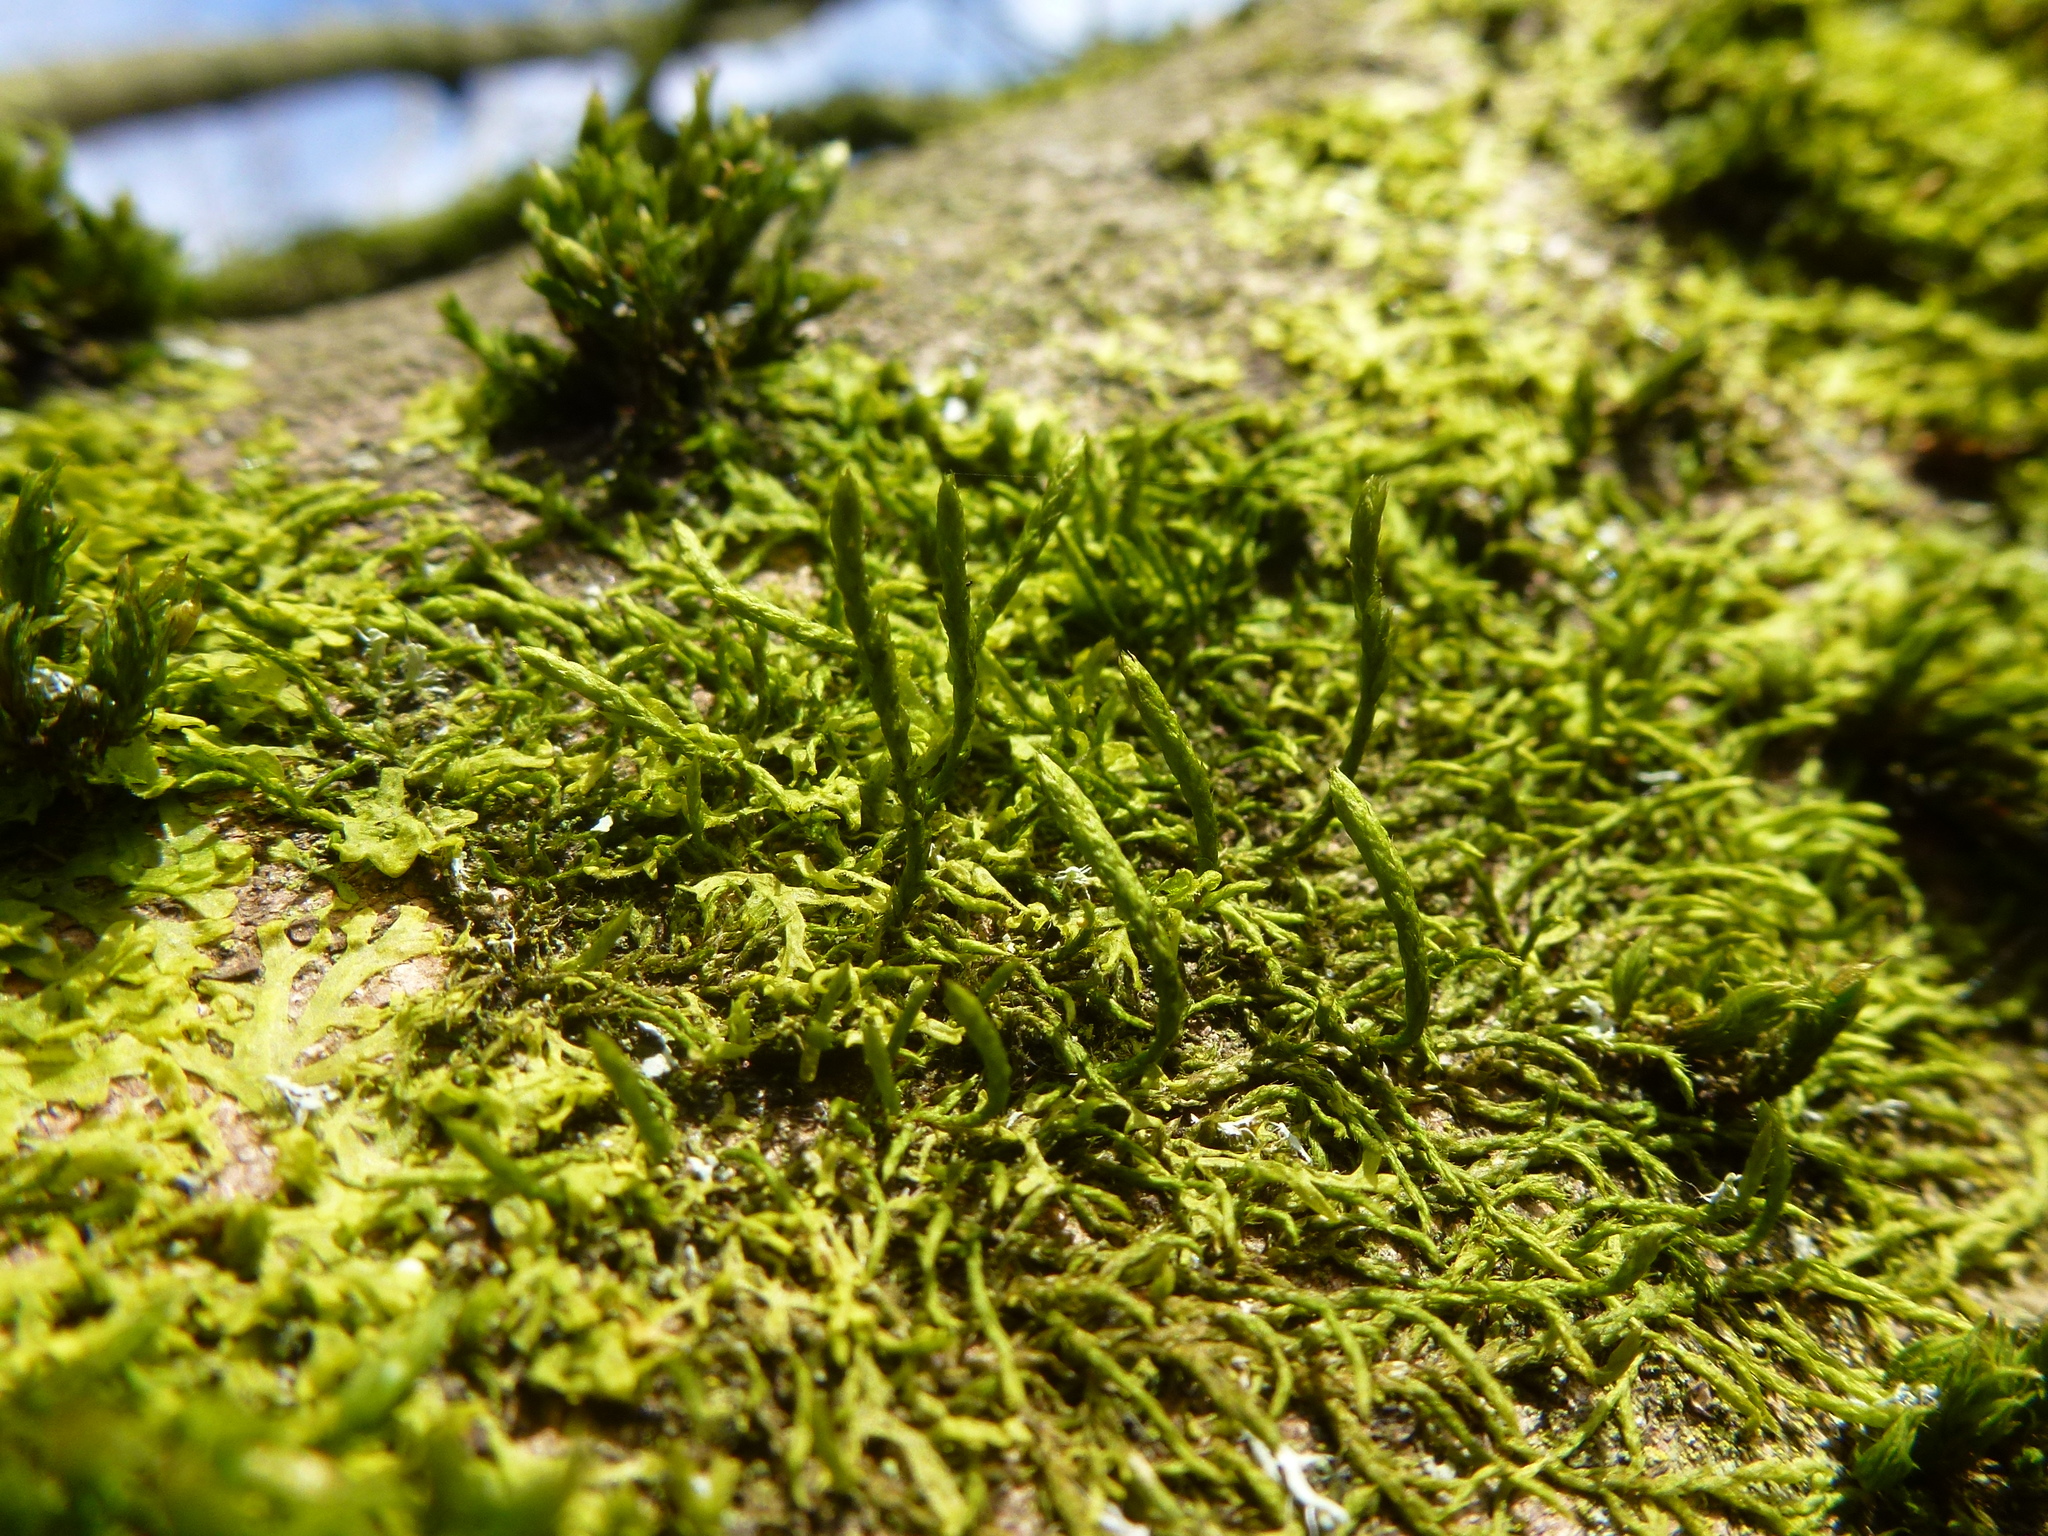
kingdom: Plantae
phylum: Bryophyta
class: Bryopsida
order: Hypnales
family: Cryphaeaceae
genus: Cryphaea
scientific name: Cryphaea heteromalla
